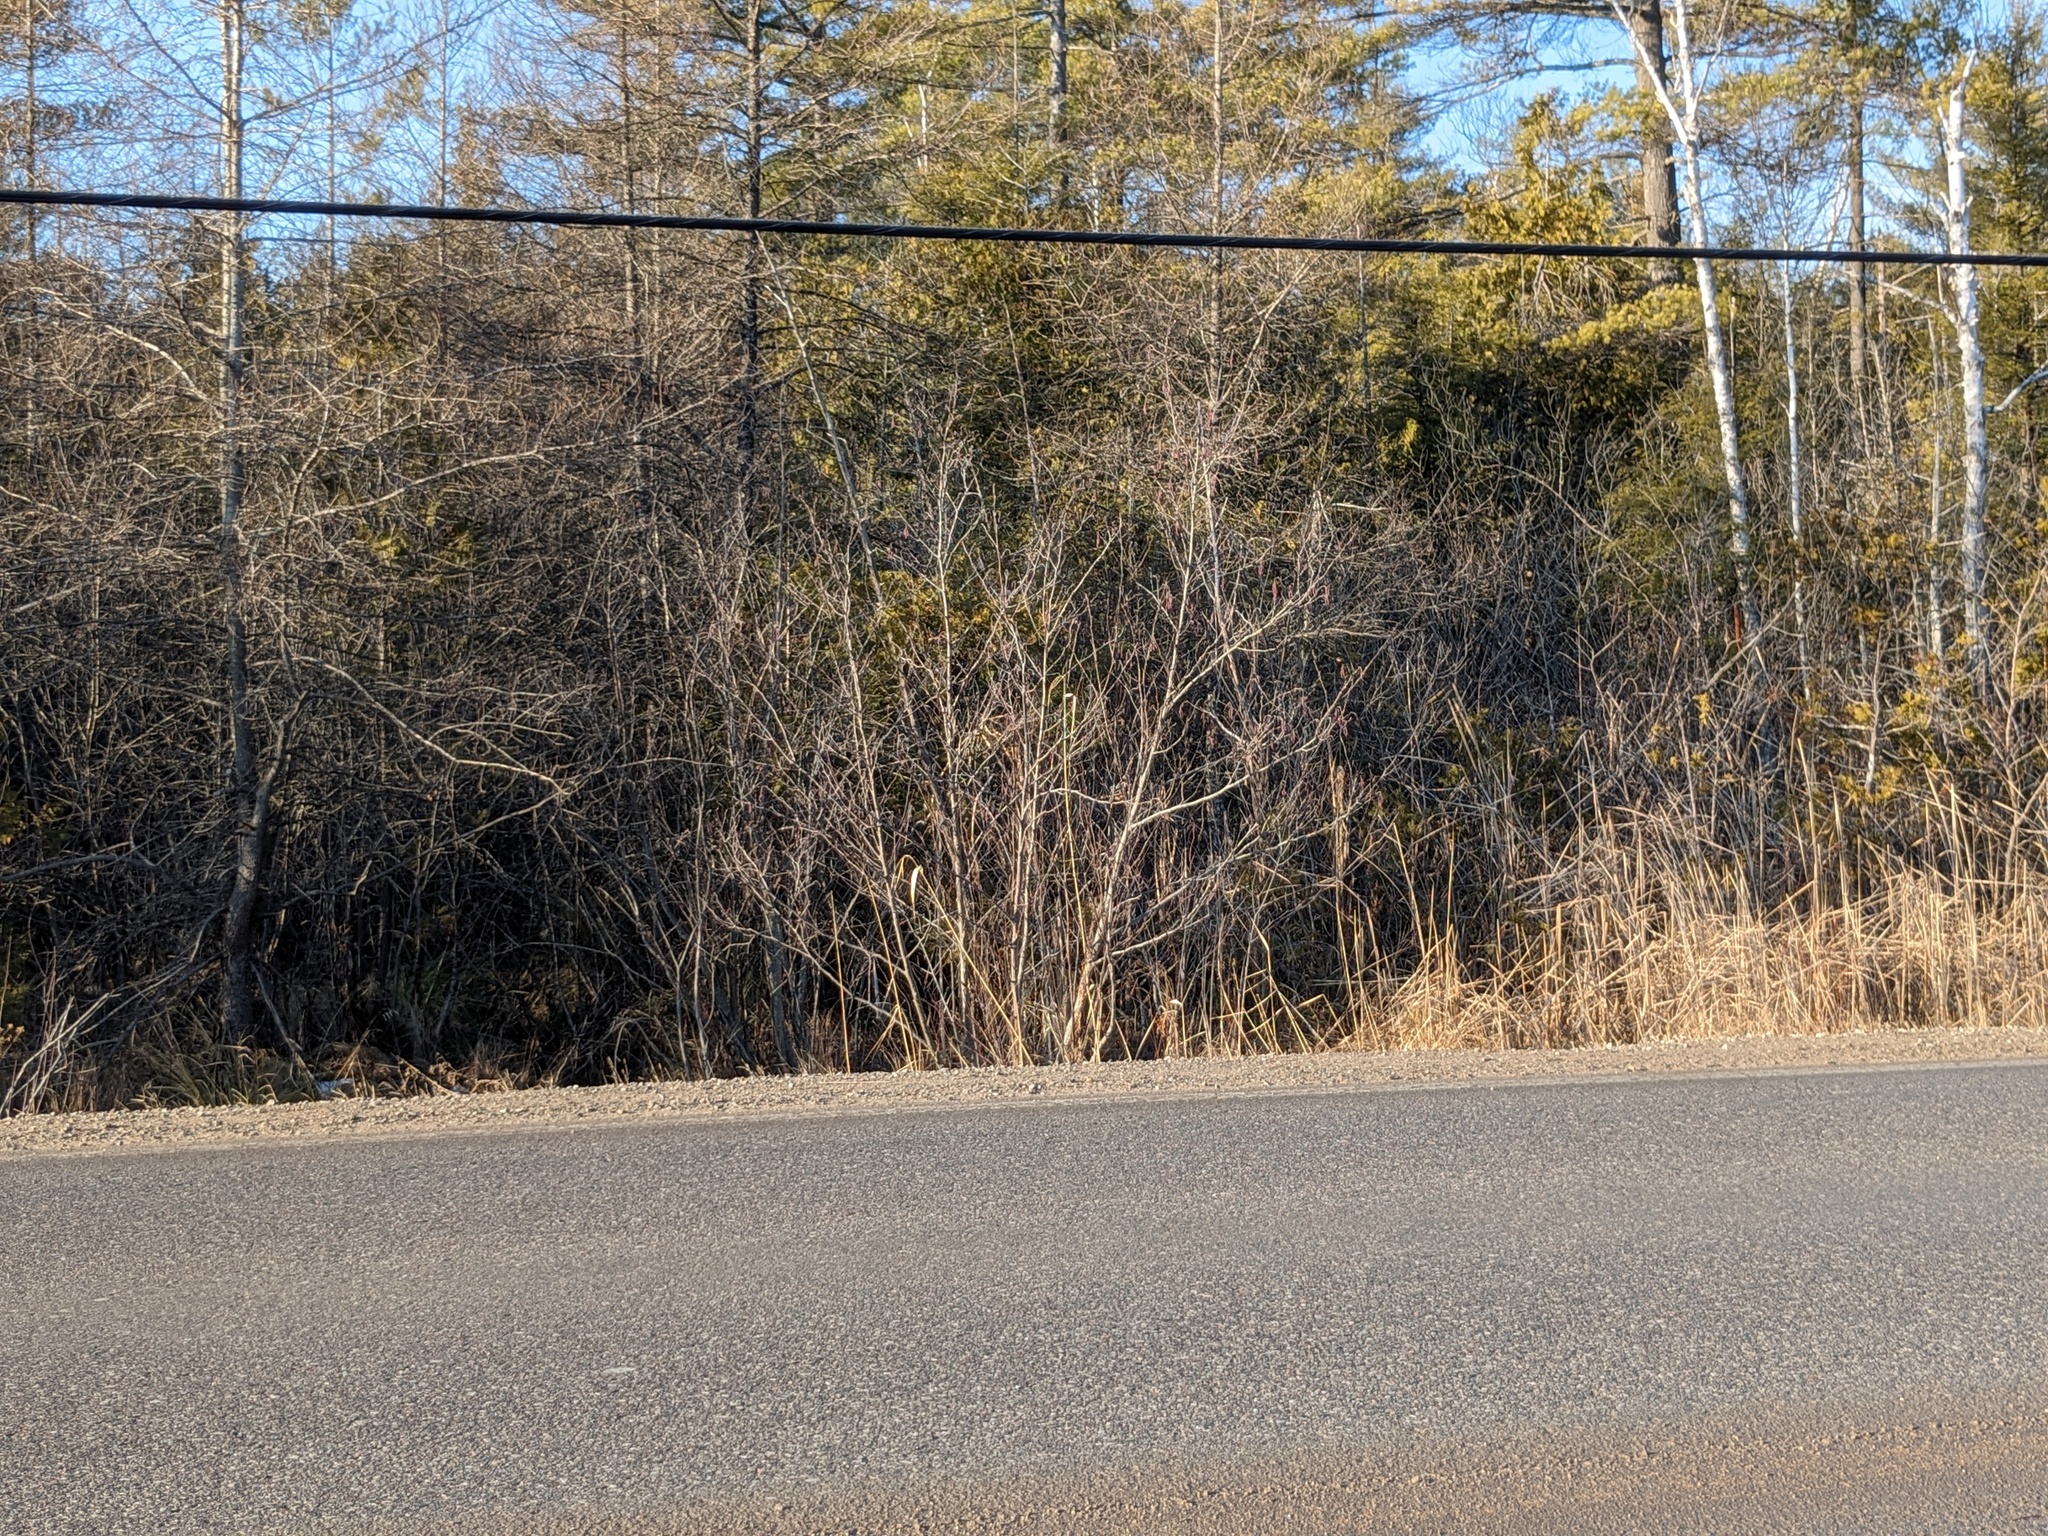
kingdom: Plantae
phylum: Tracheophyta
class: Liliopsida
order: Poales
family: Poaceae
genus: Phragmites
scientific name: Phragmites australis
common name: Common reed
